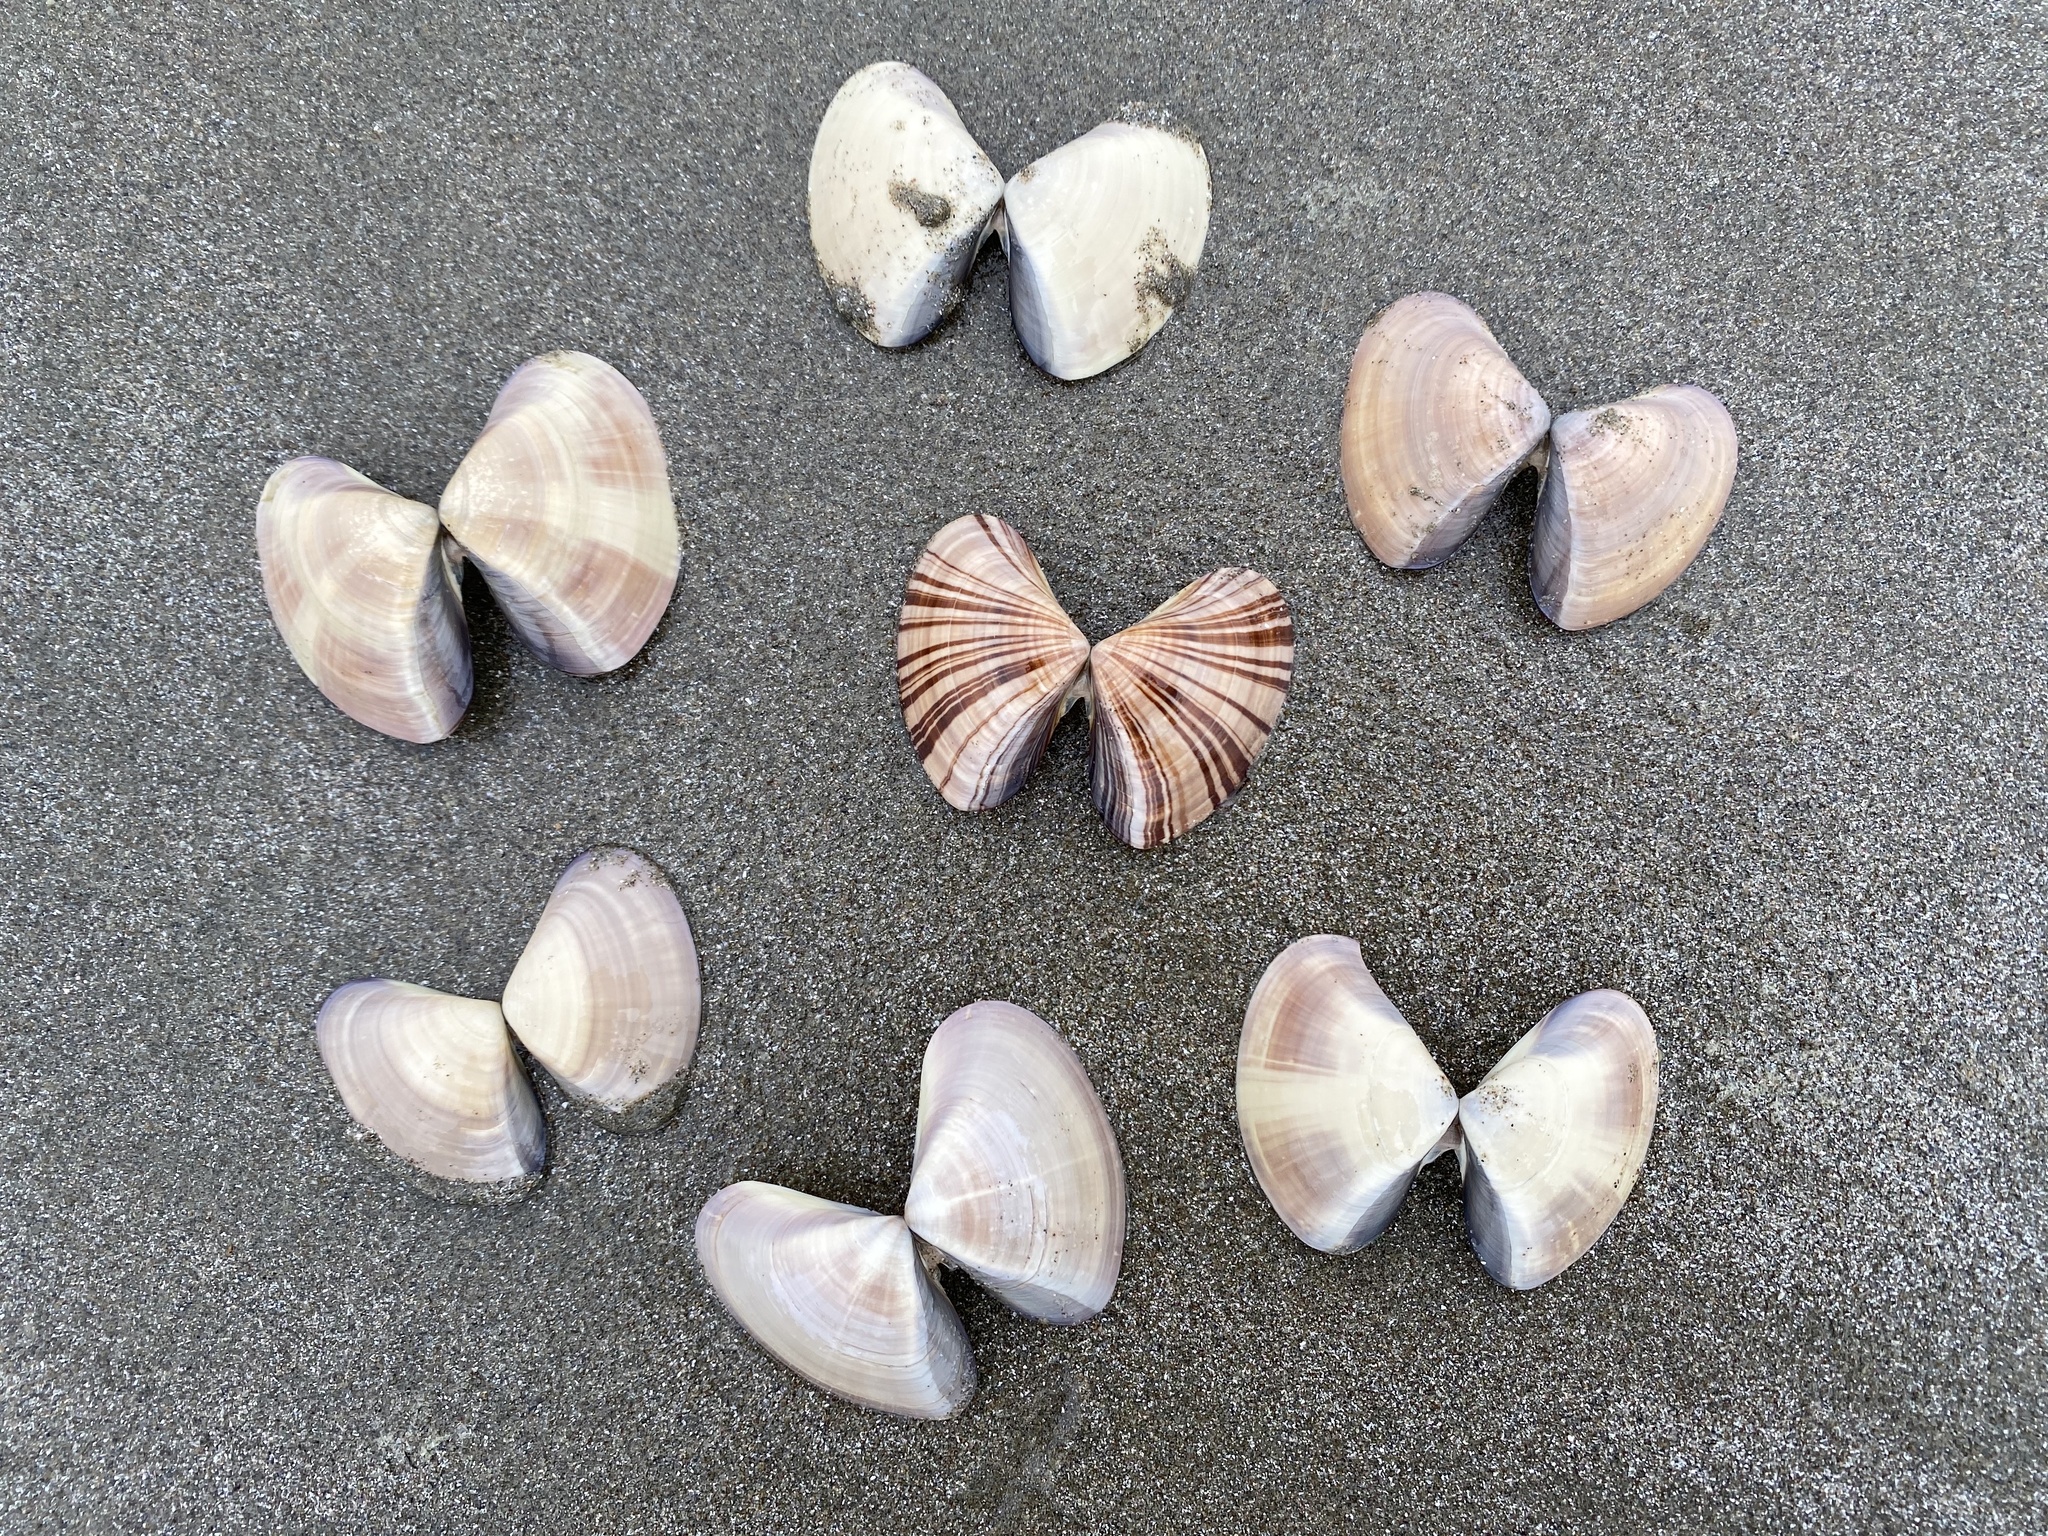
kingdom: Animalia
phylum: Mollusca
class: Bivalvia
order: Venerida
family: Veneridae
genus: Tivela
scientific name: Tivela stultorum
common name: Pismo clam
